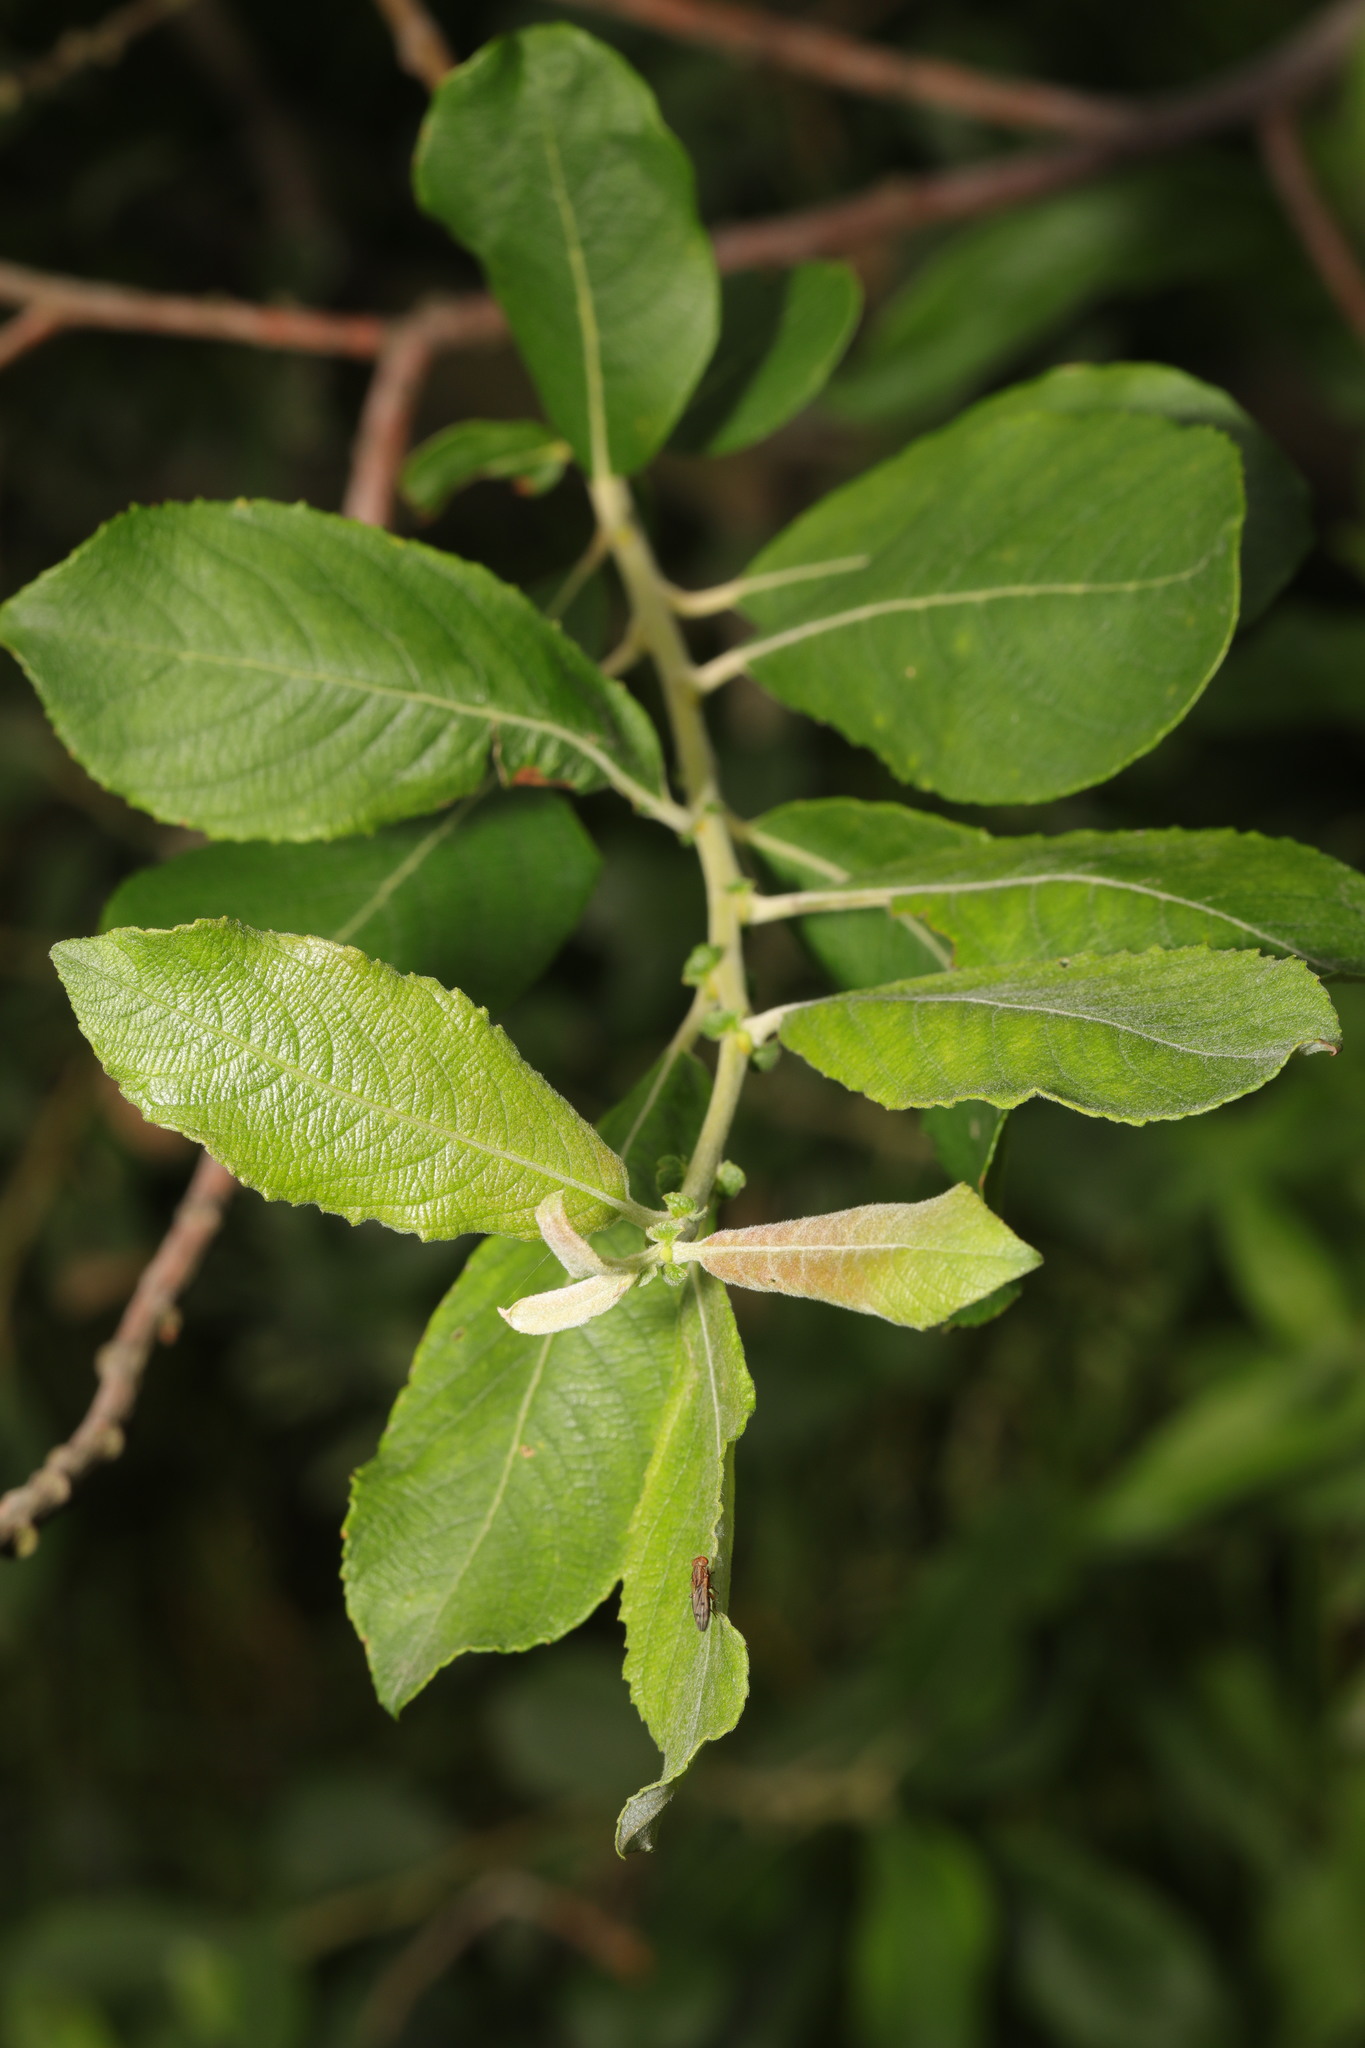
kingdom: Plantae
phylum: Tracheophyta
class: Magnoliopsida
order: Malpighiales
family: Salicaceae
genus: Salix
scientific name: Salix cinerea
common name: Common sallow
